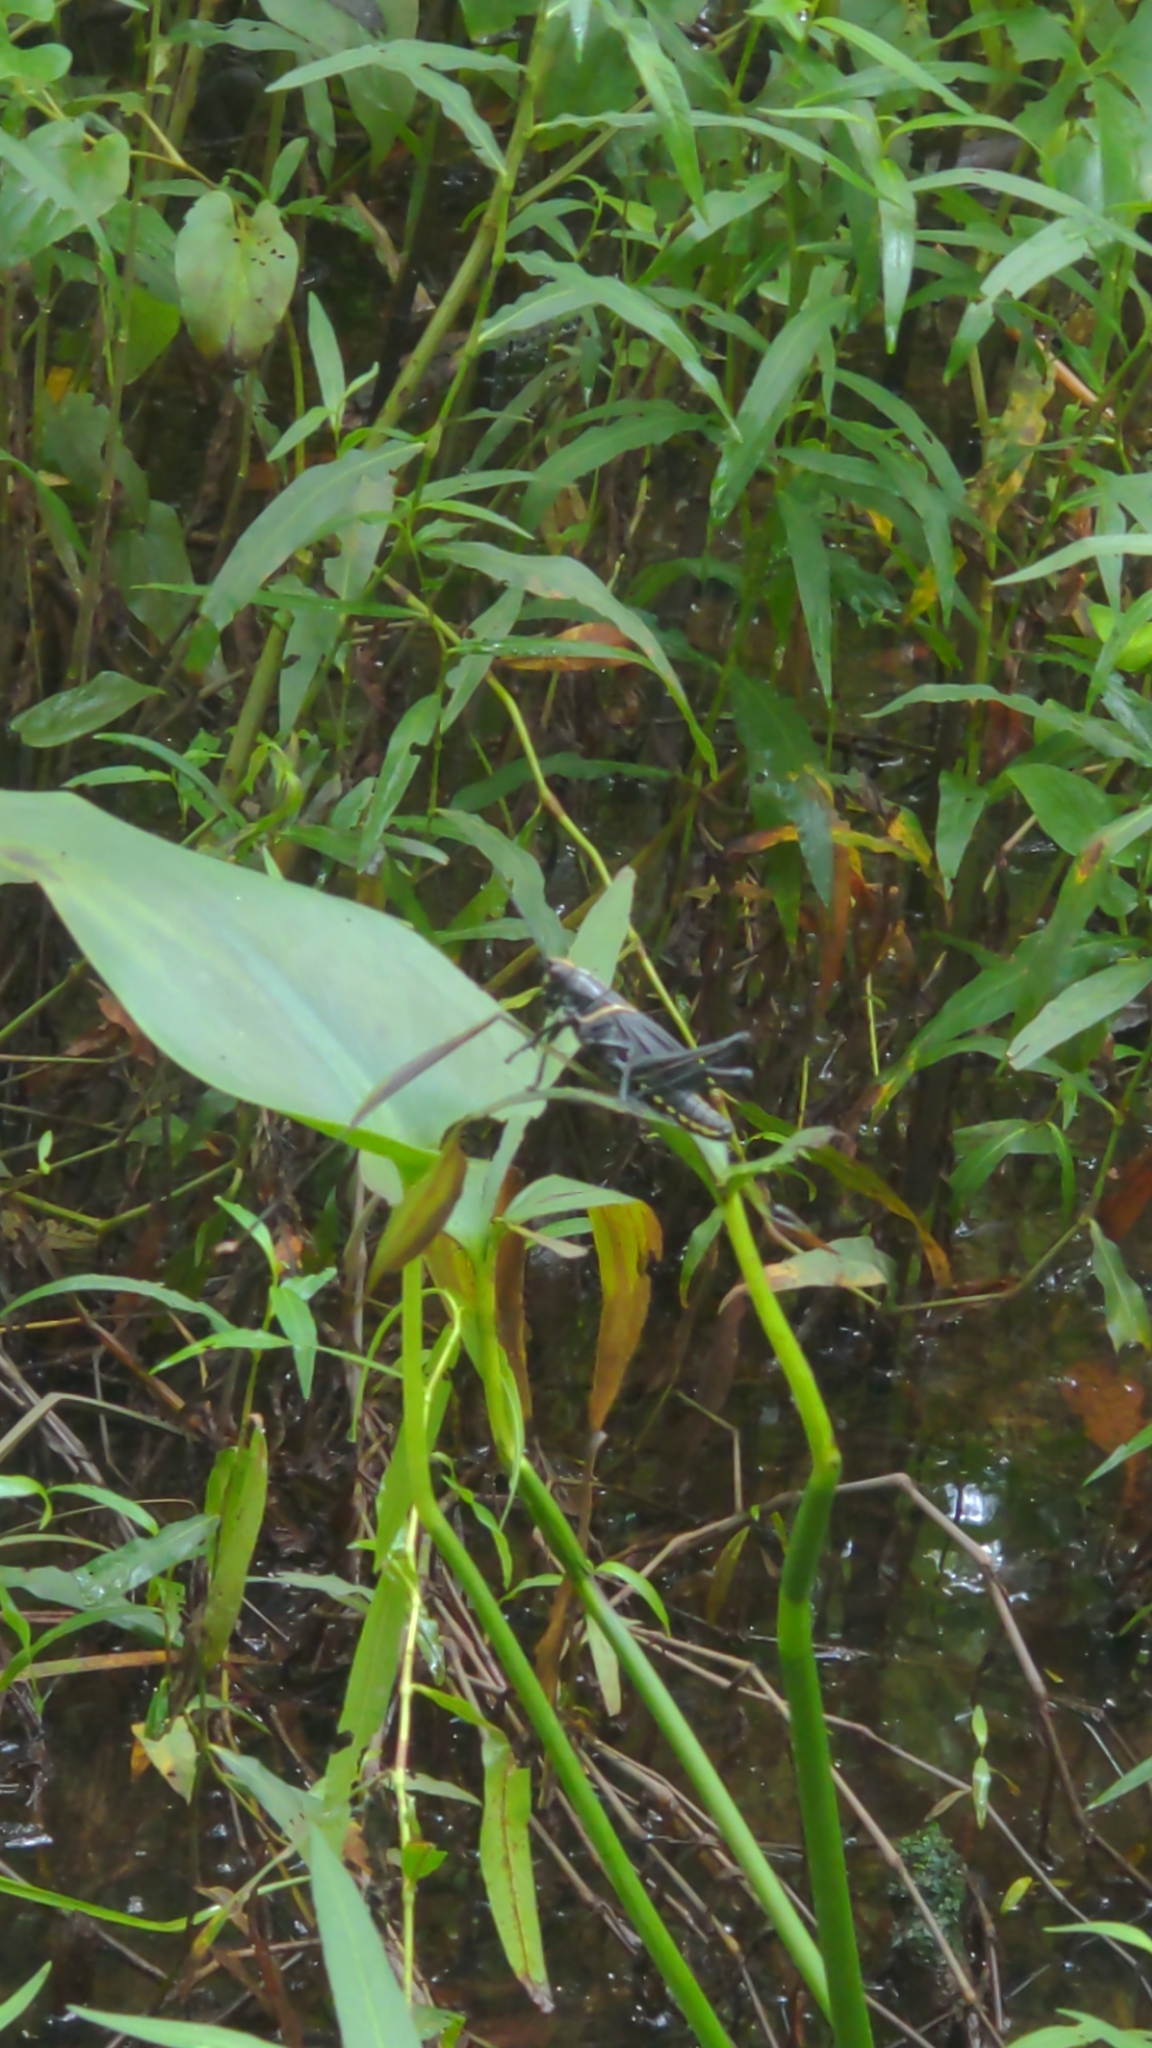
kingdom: Animalia
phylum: Arthropoda
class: Insecta
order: Orthoptera
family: Romaleidae
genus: Romalea
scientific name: Romalea microptera
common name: Eastern lubber grasshopper
